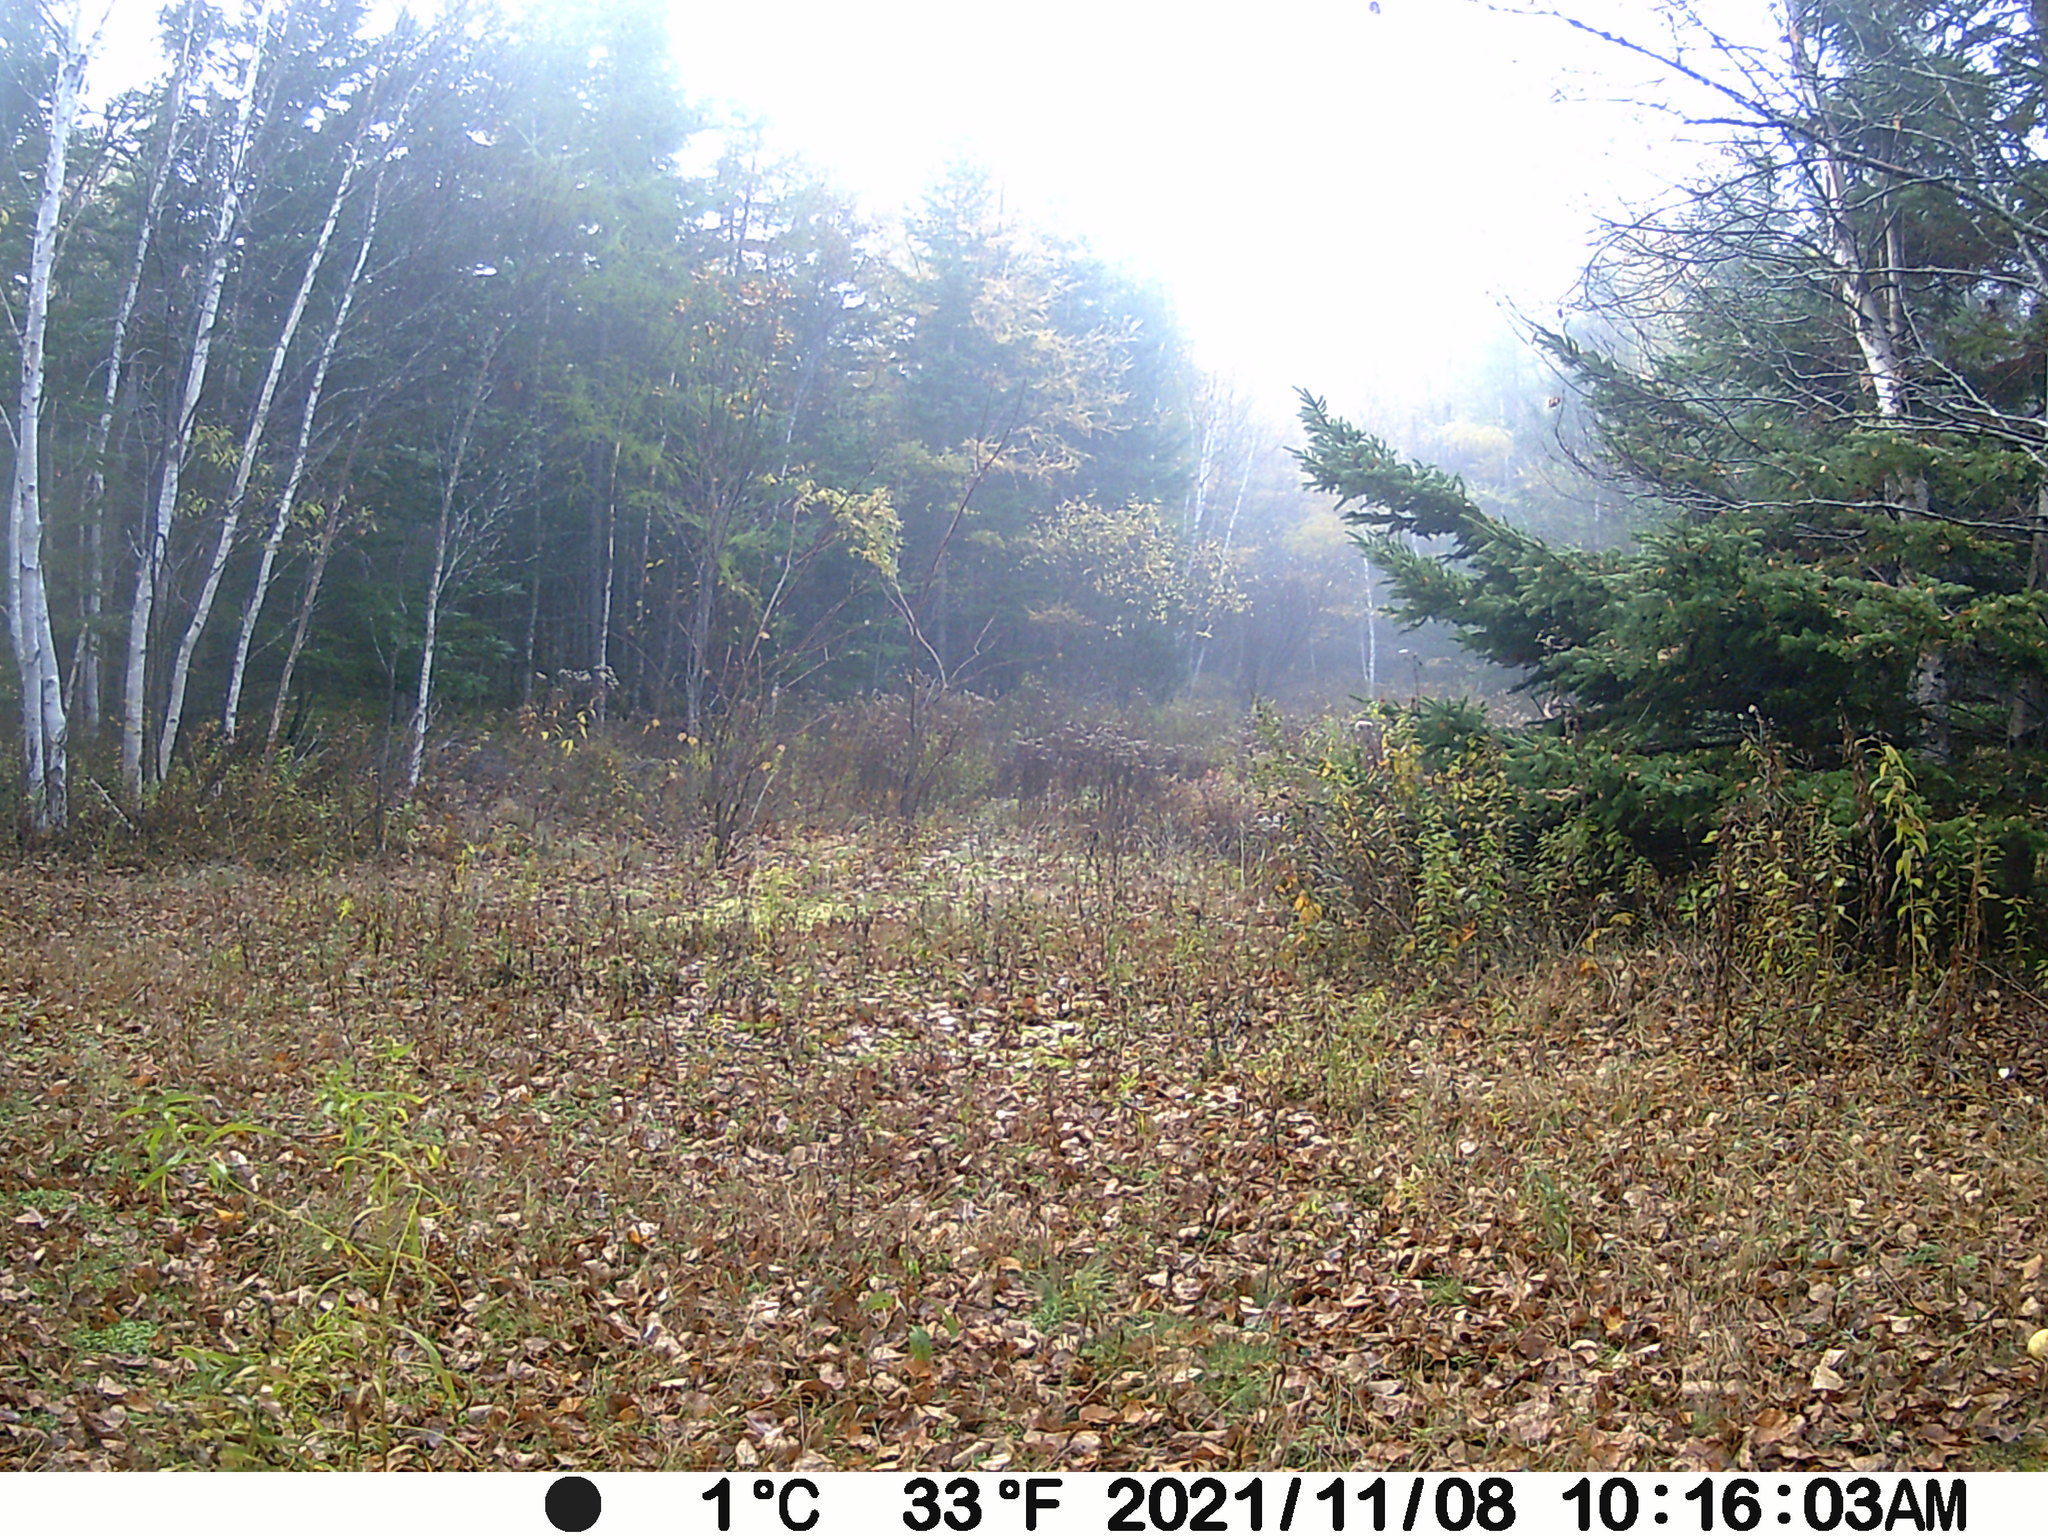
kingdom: Animalia
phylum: Chordata
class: Mammalia
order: Artiodactyla
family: Cervidae
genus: Odocoileus
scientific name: Odocoileus virginianus
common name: White-tailed deer
